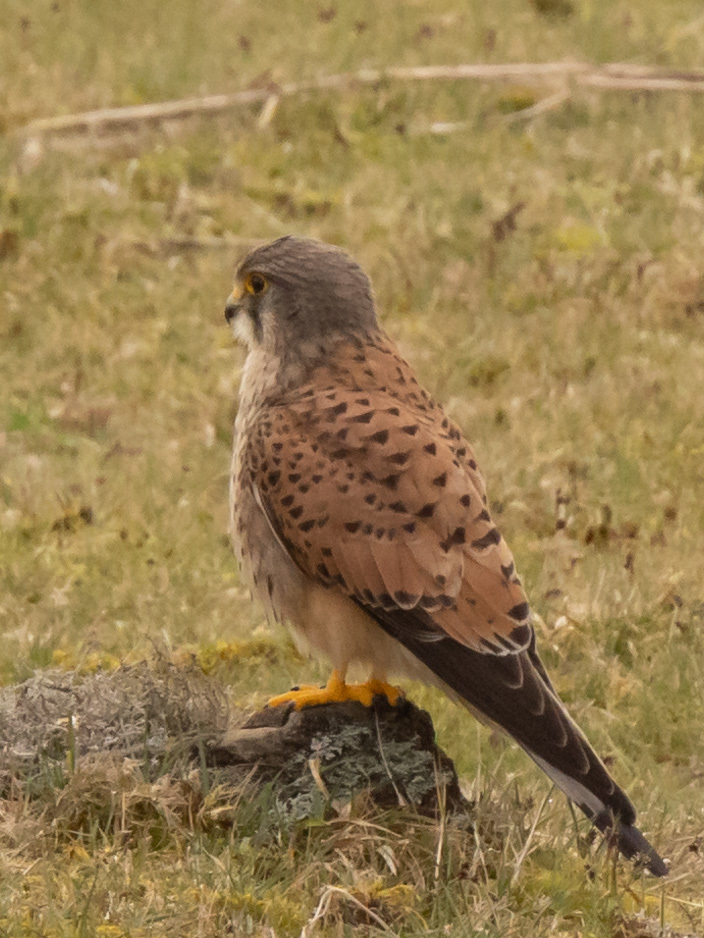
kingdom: Animalia
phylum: Chordata
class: Aves
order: Falconiformes
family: Falconidae
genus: Falco
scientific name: Falco tinnunculus
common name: Common kestrel
